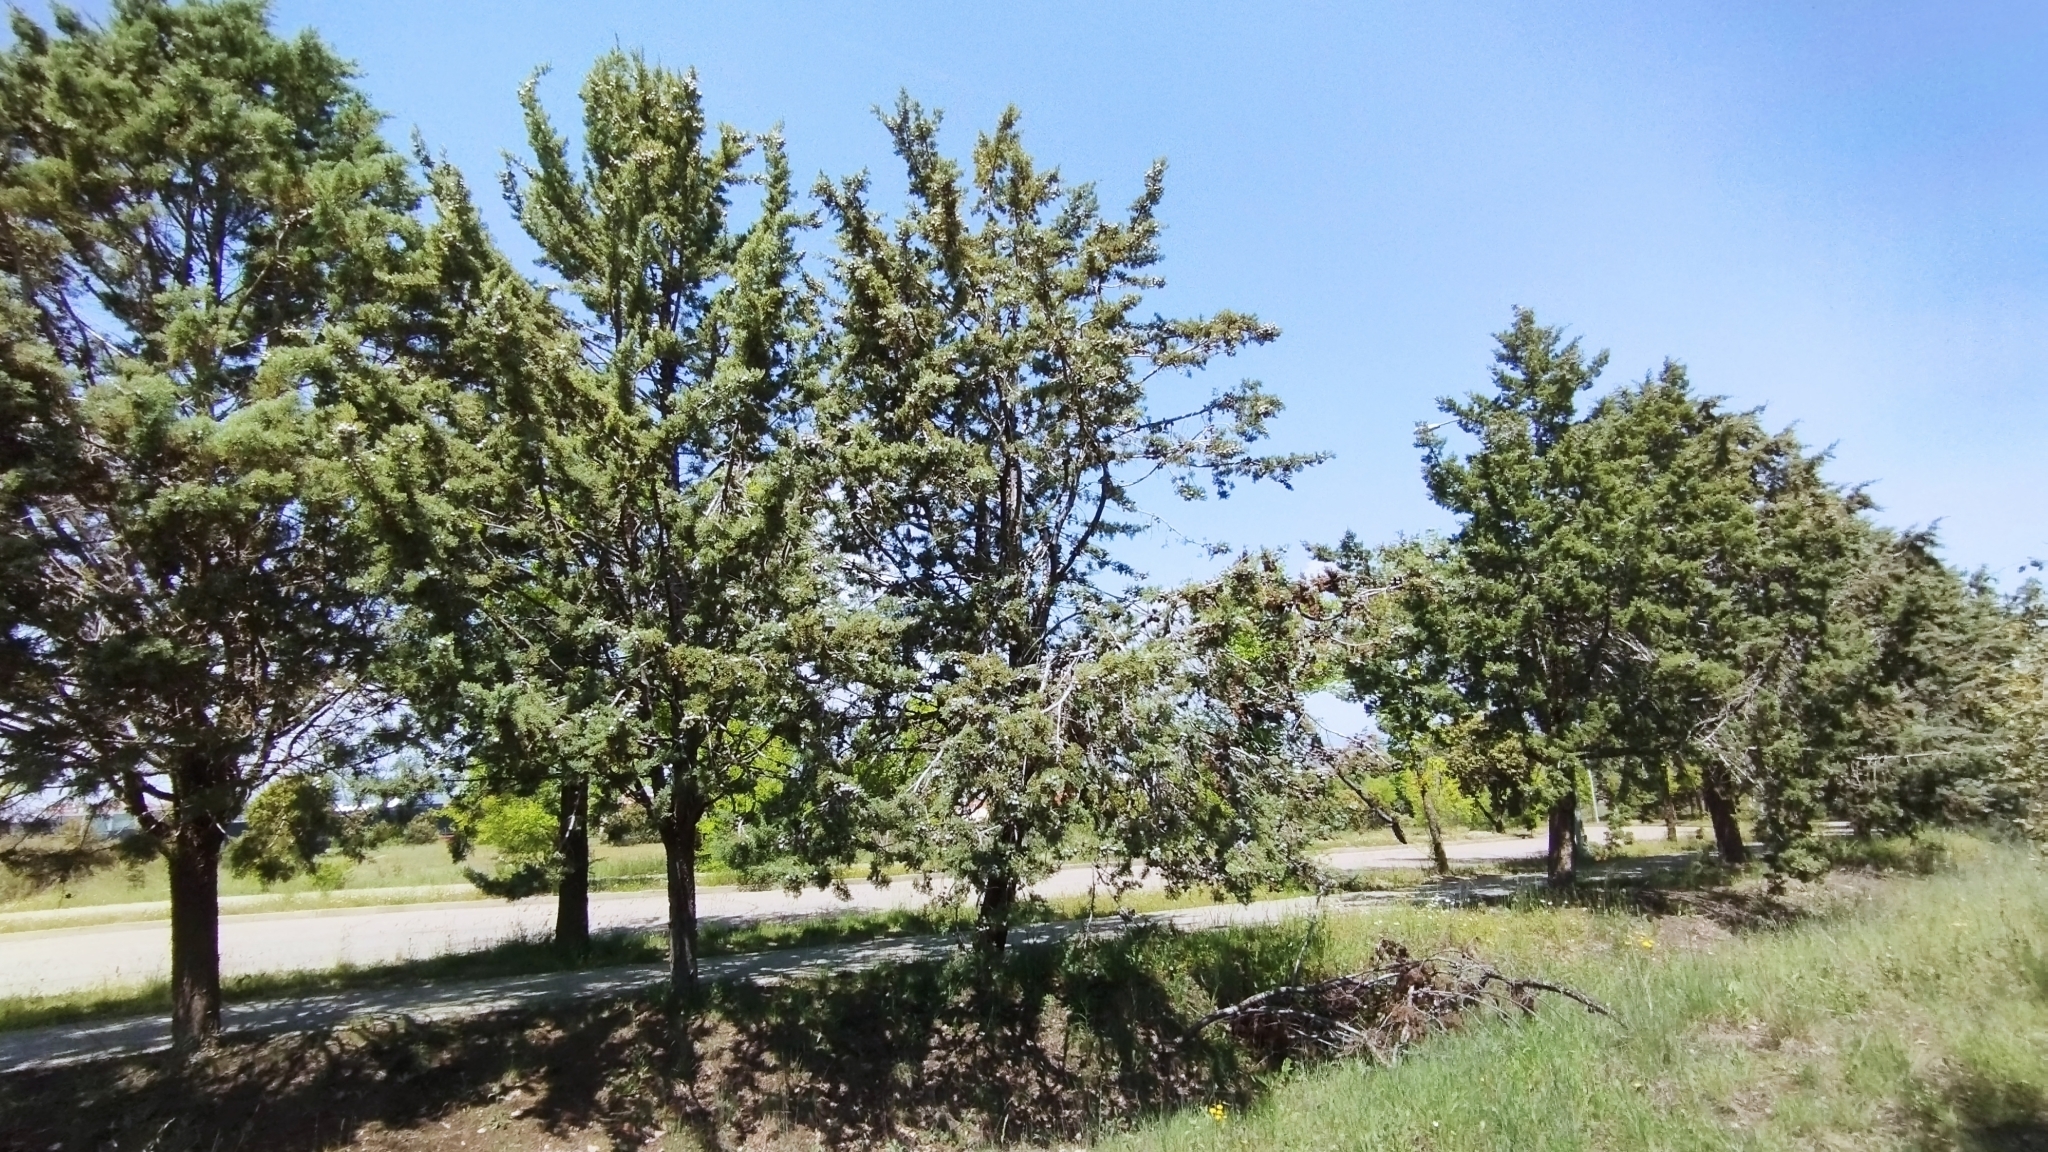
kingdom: Plantae
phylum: Tracheophyta
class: Pinopsida
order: Pinales
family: Cupressaceae
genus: Cupressus
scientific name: Cupressus arizonica
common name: Arizona cypress
